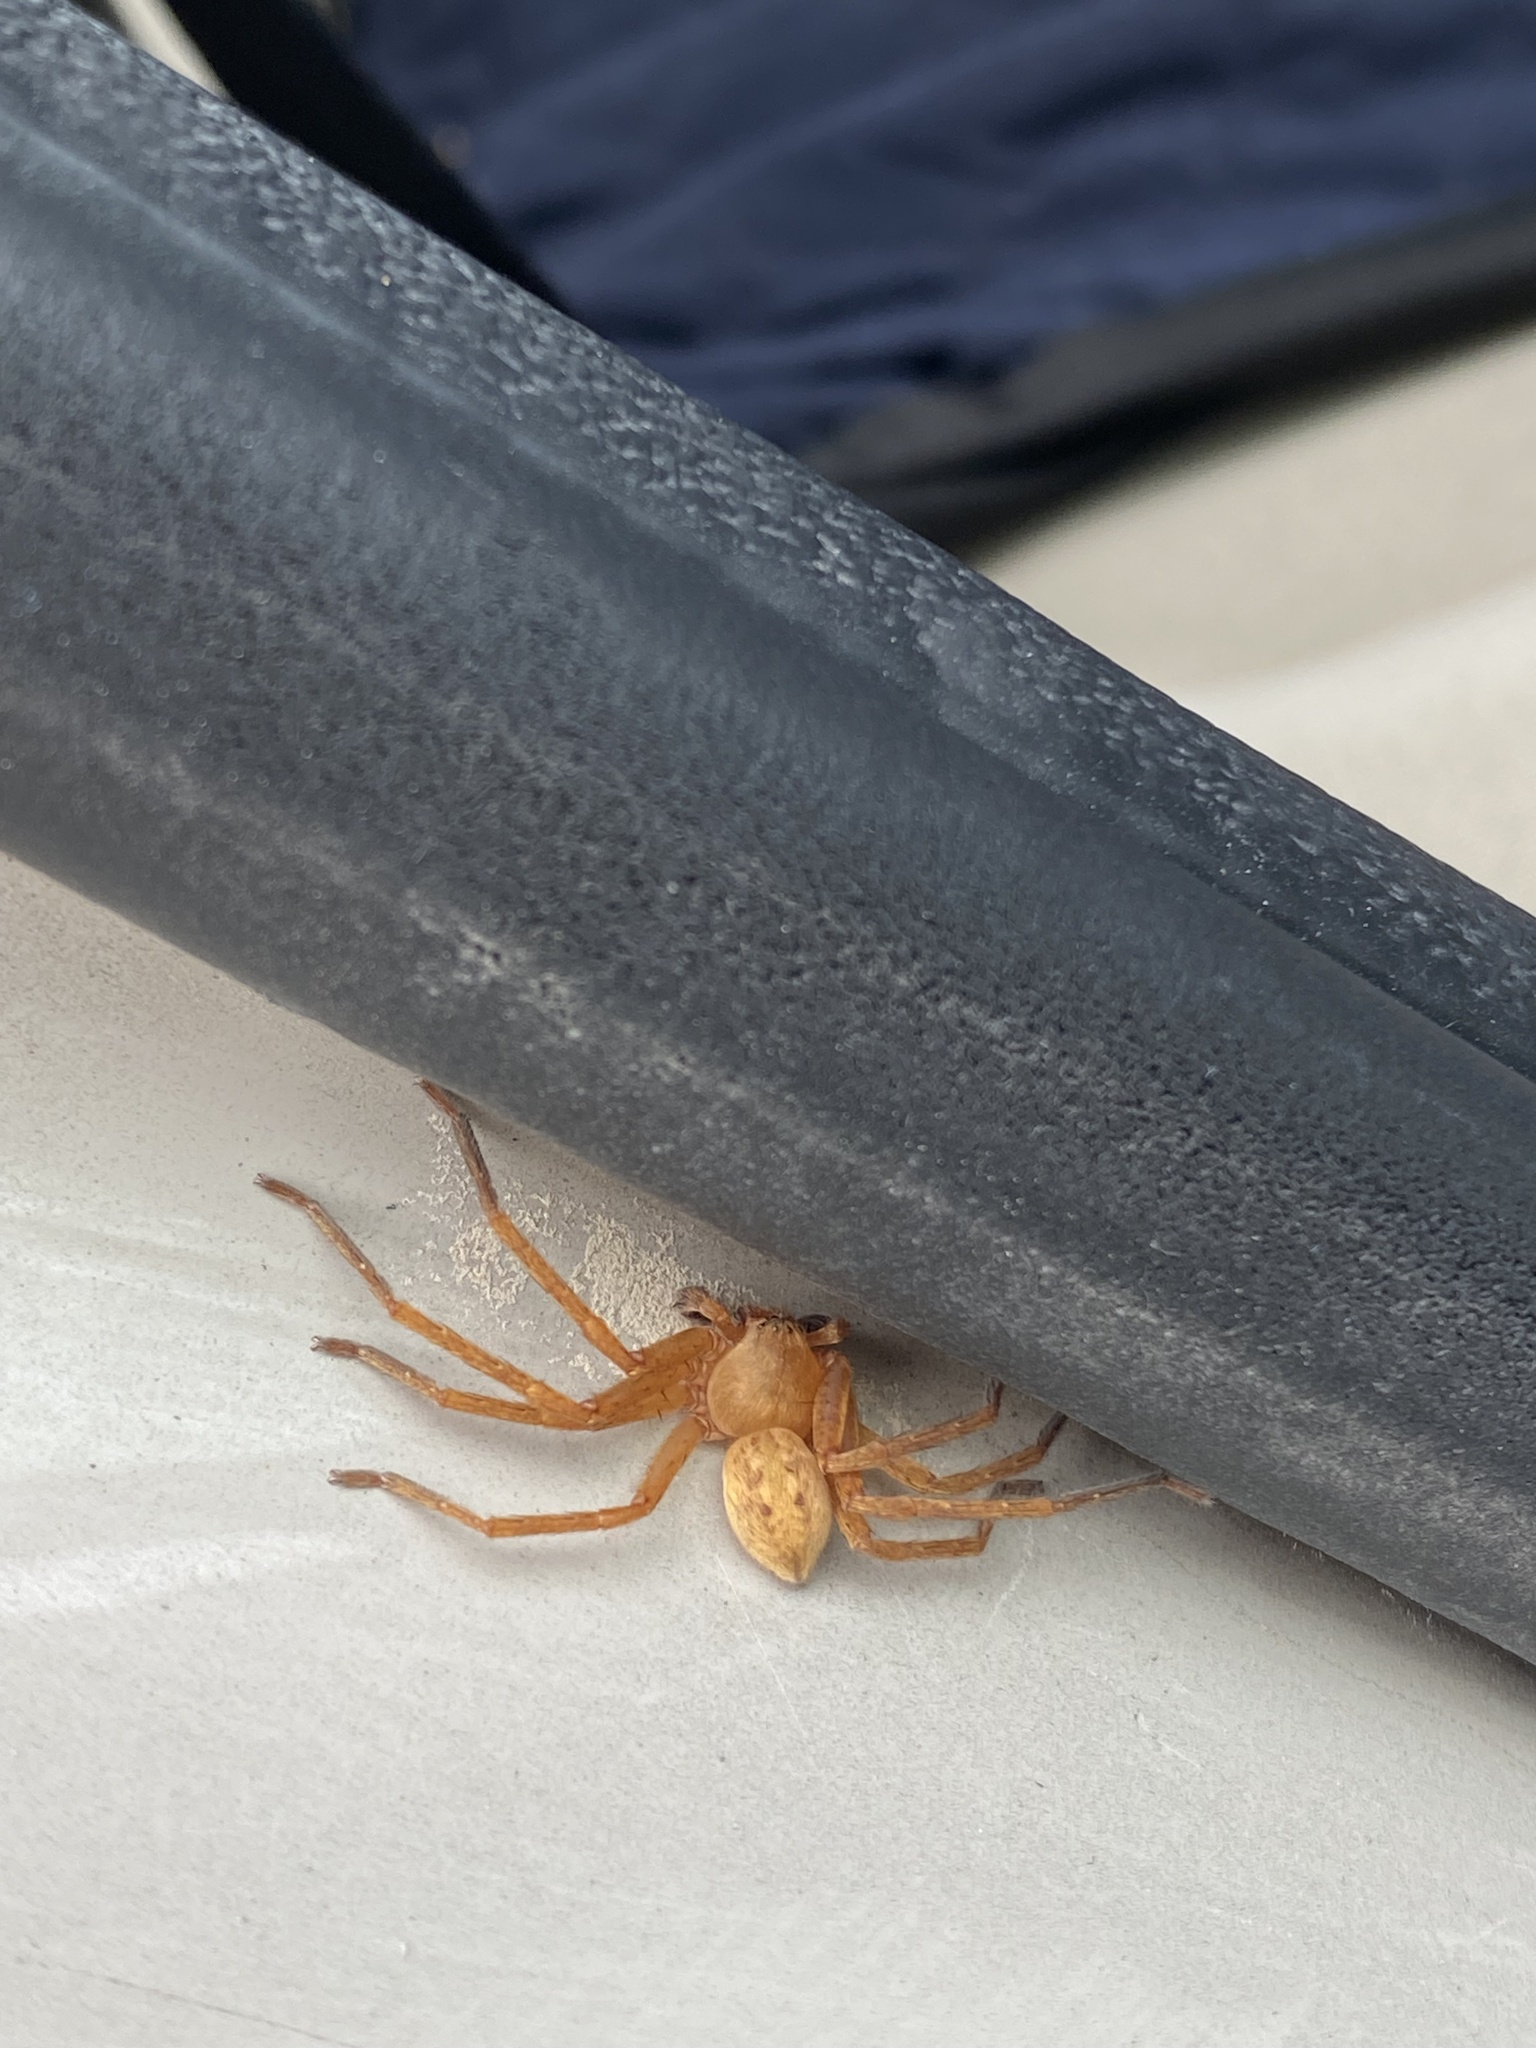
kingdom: Animalia
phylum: Arthropoda
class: Arachnida
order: Araneae
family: Sparassidae
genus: Olios
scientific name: Olios argelasius
